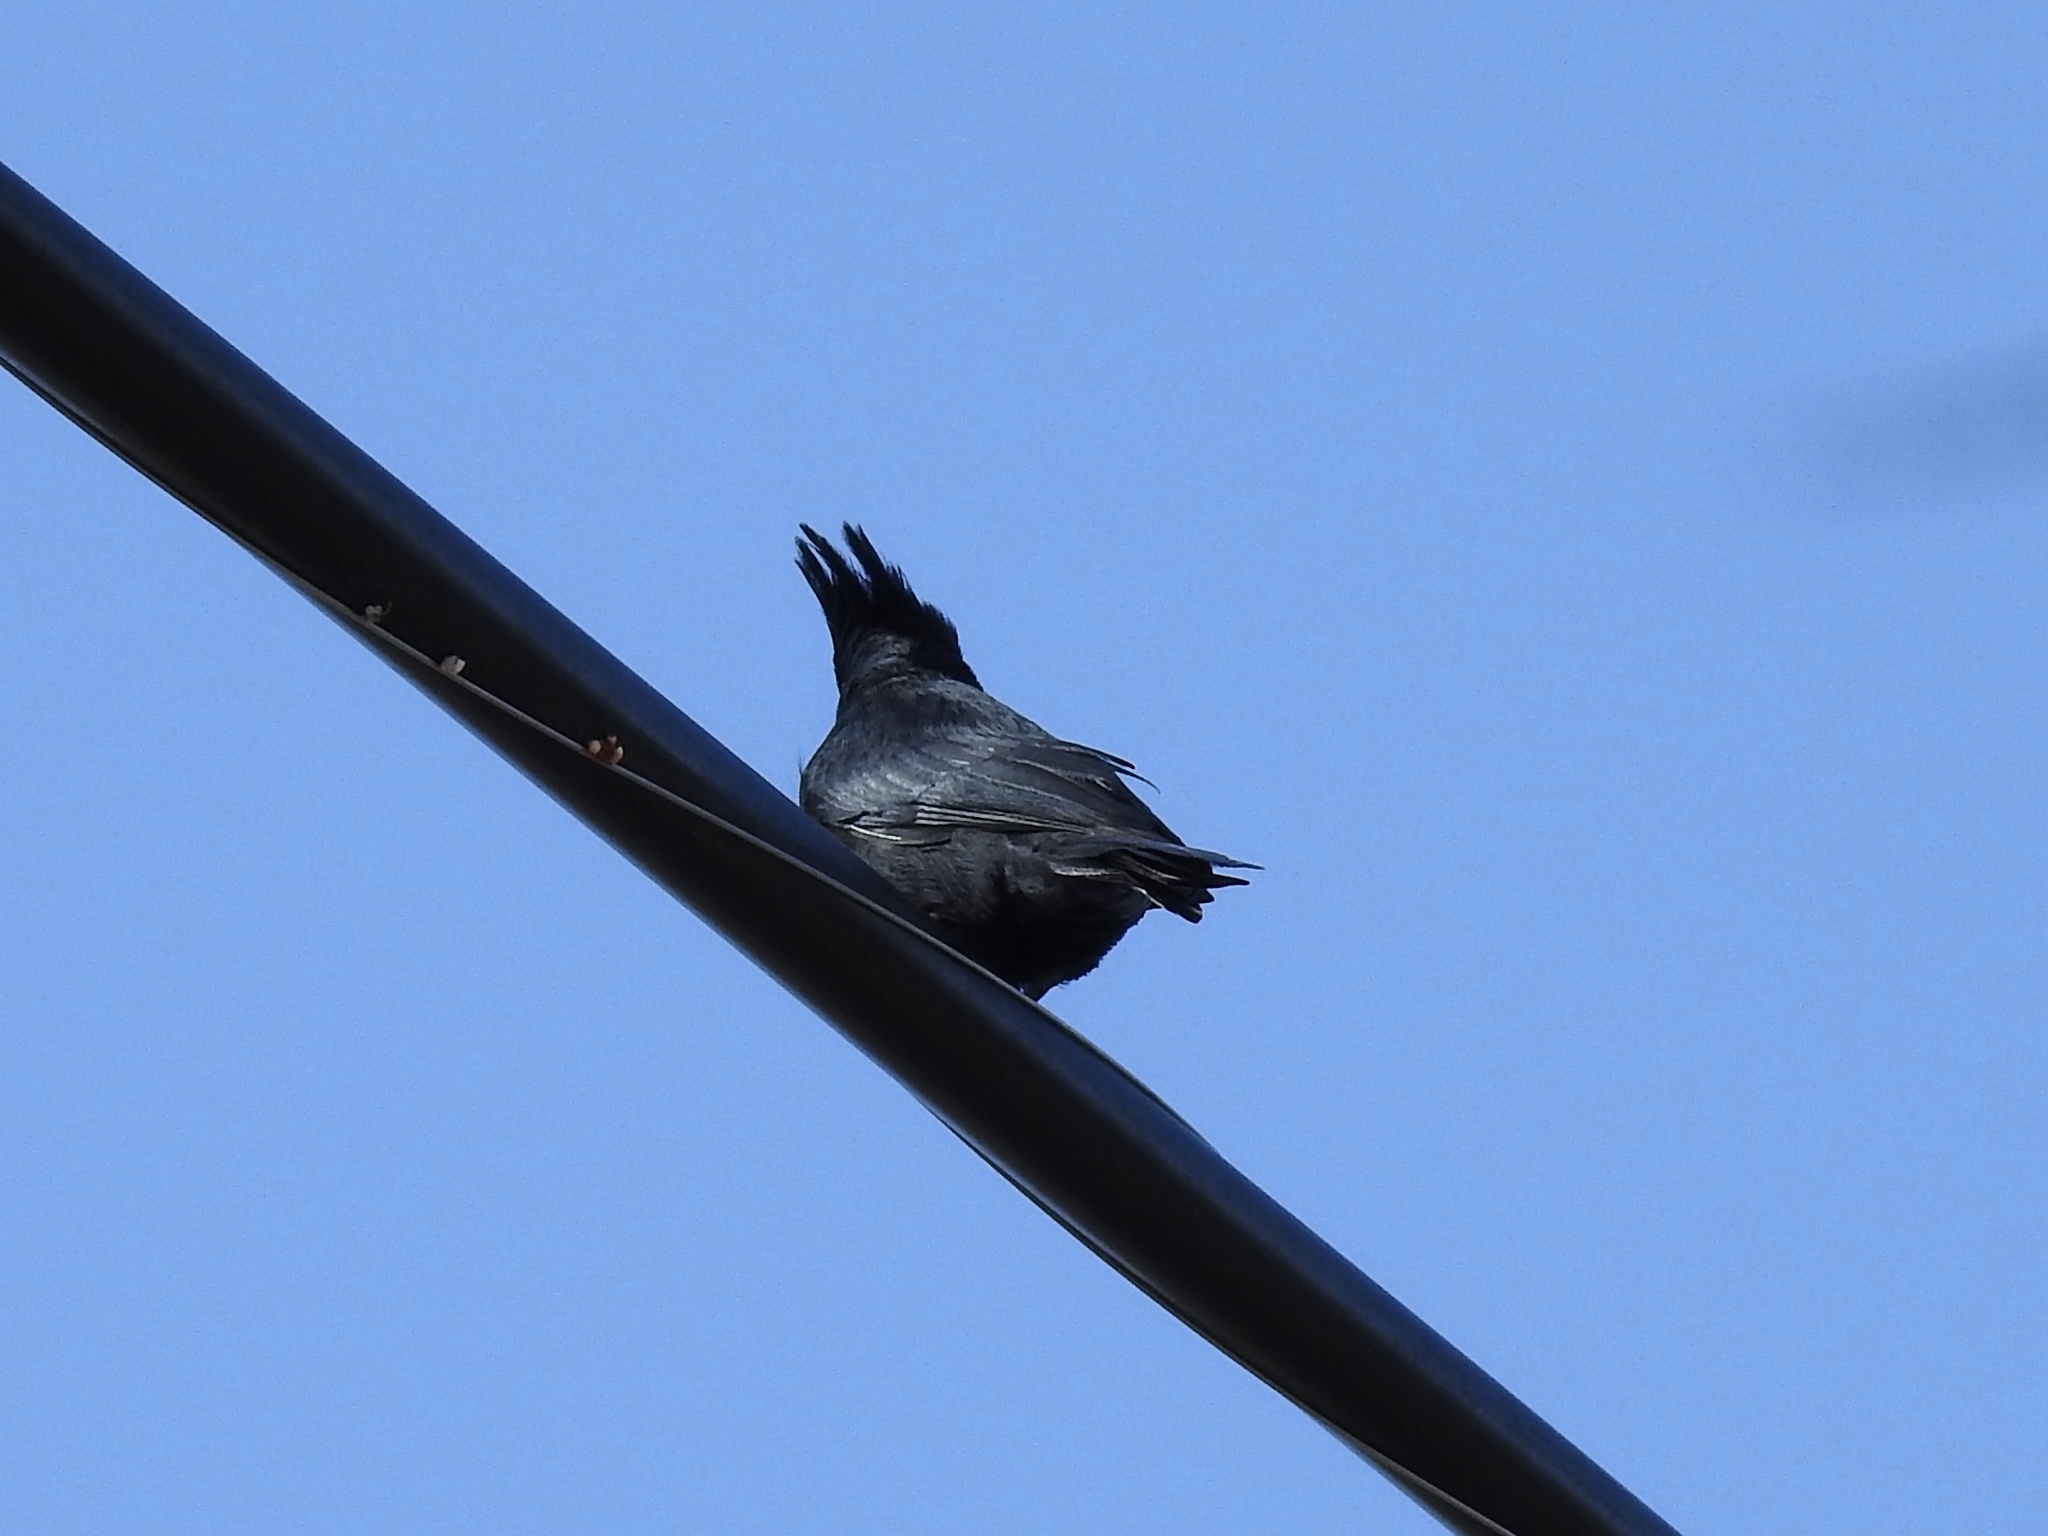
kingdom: Animalia
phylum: Chordata
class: Aves
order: Passeriformes
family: Ptilogonatidae
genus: Phainopepla
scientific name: Phainopepla nitens
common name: Phainopepla
